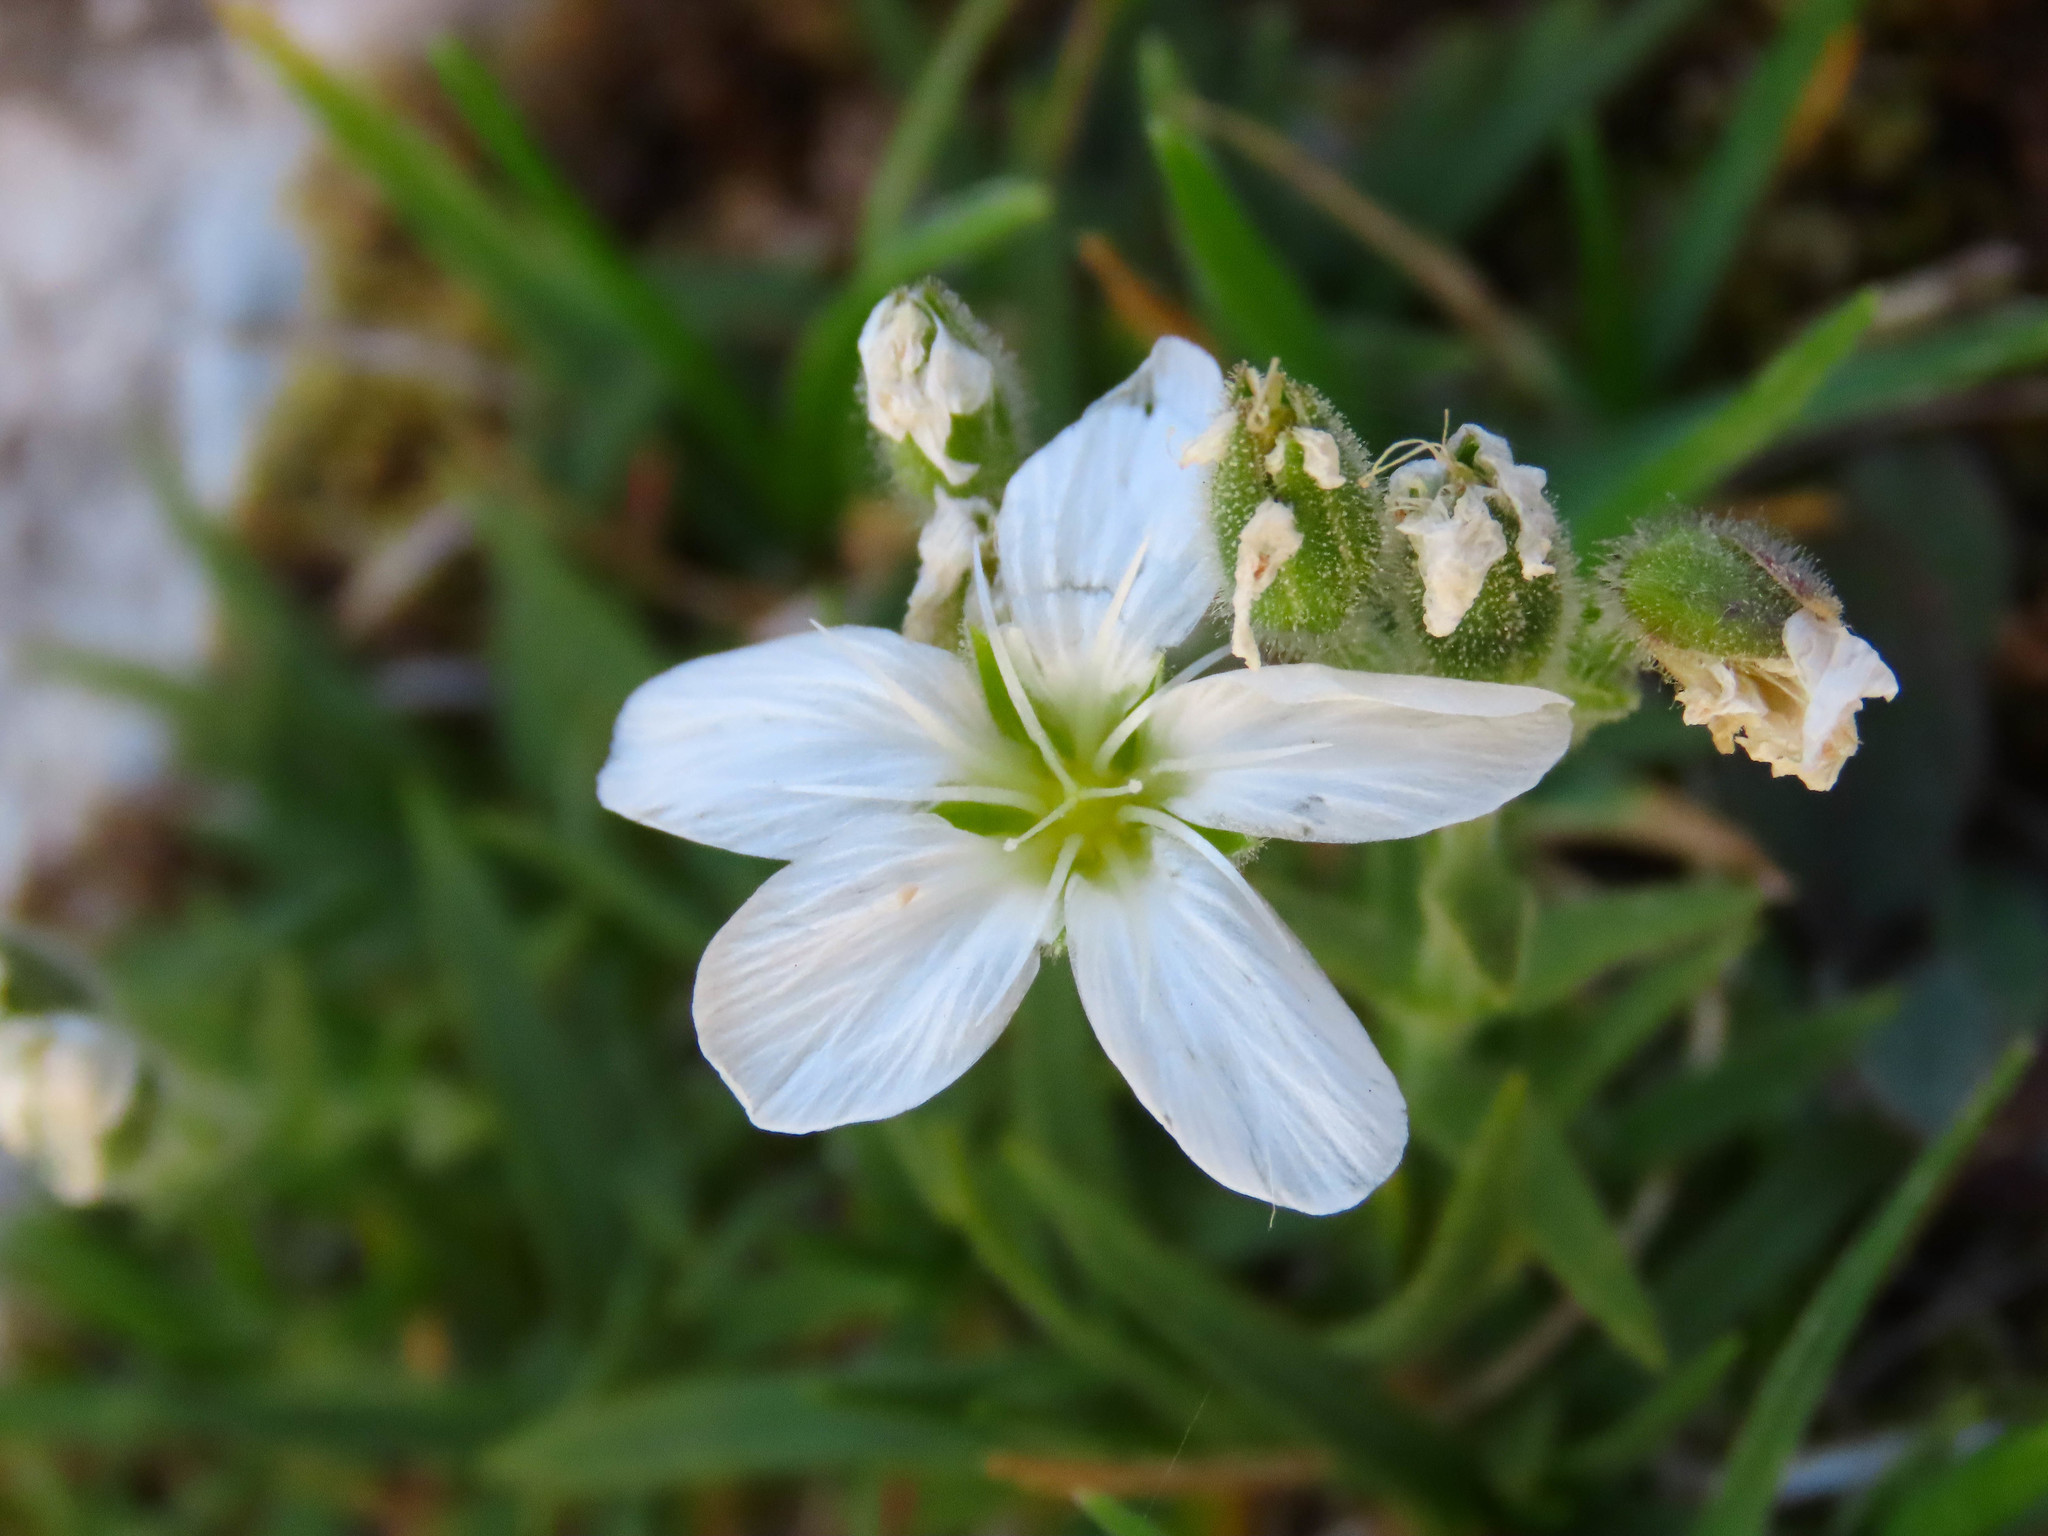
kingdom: Plantae
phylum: Tracheophyta
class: Magnoliopsida
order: Caryophyllales
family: Caryophyllaceae
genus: Mcneillia
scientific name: Mcneillia graminifolia
